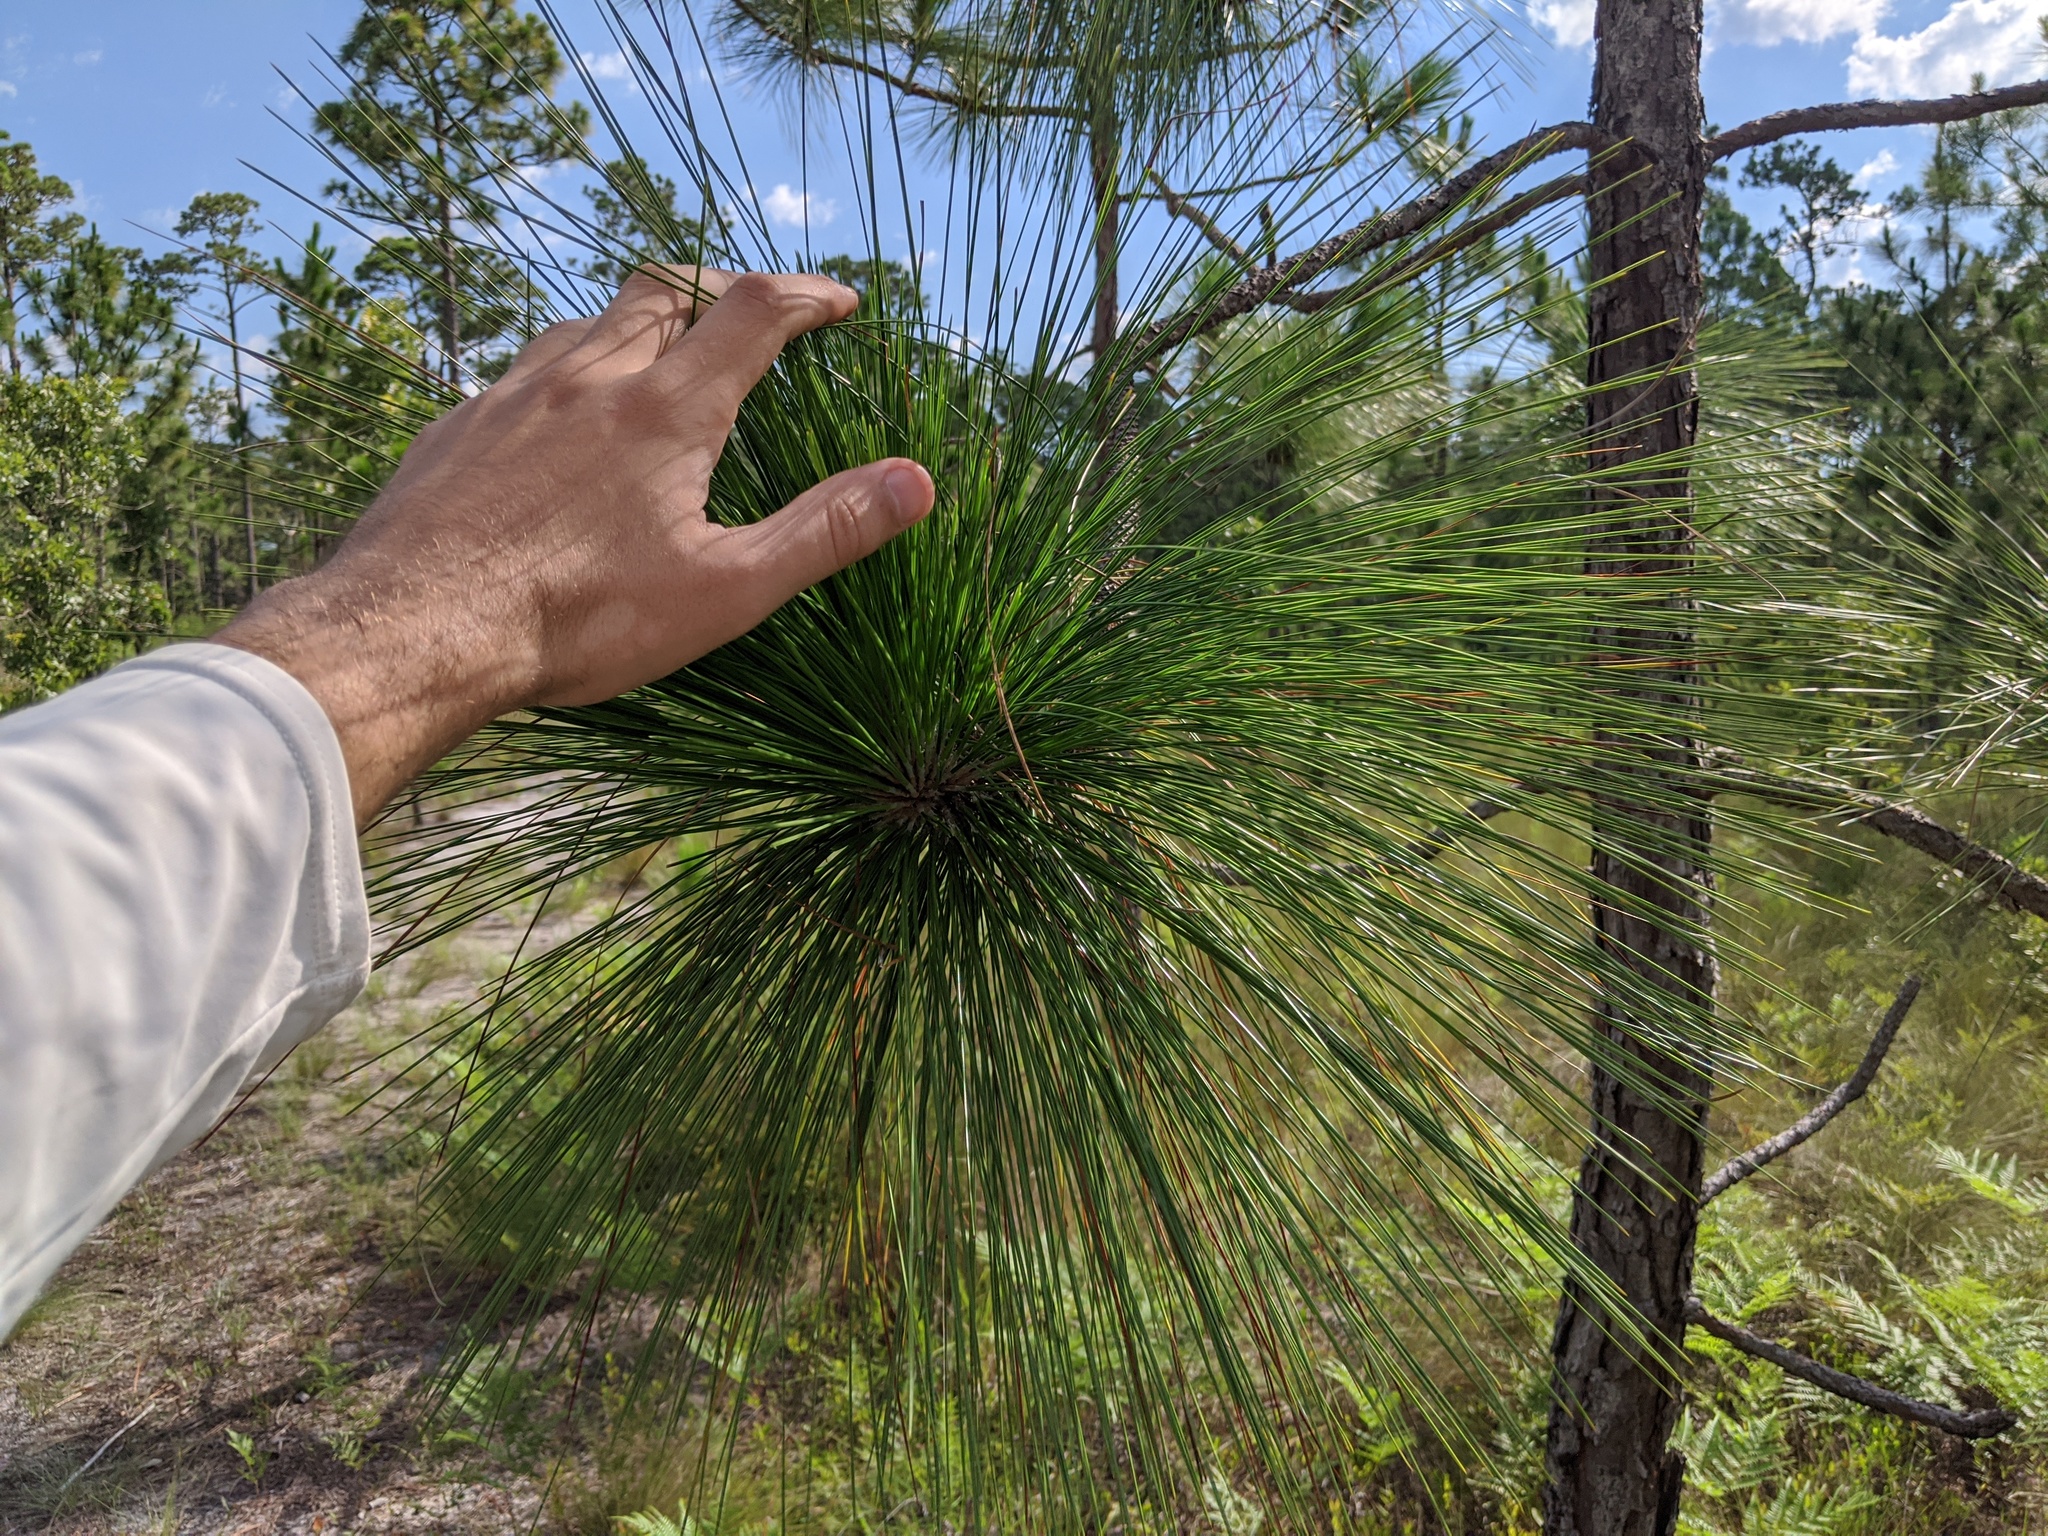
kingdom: Plantae
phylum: Tracheophyta
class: Pinopsida
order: Pinales
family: Pinaceae
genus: Pinus
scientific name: Pinus palustris
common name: Longleaf pine
